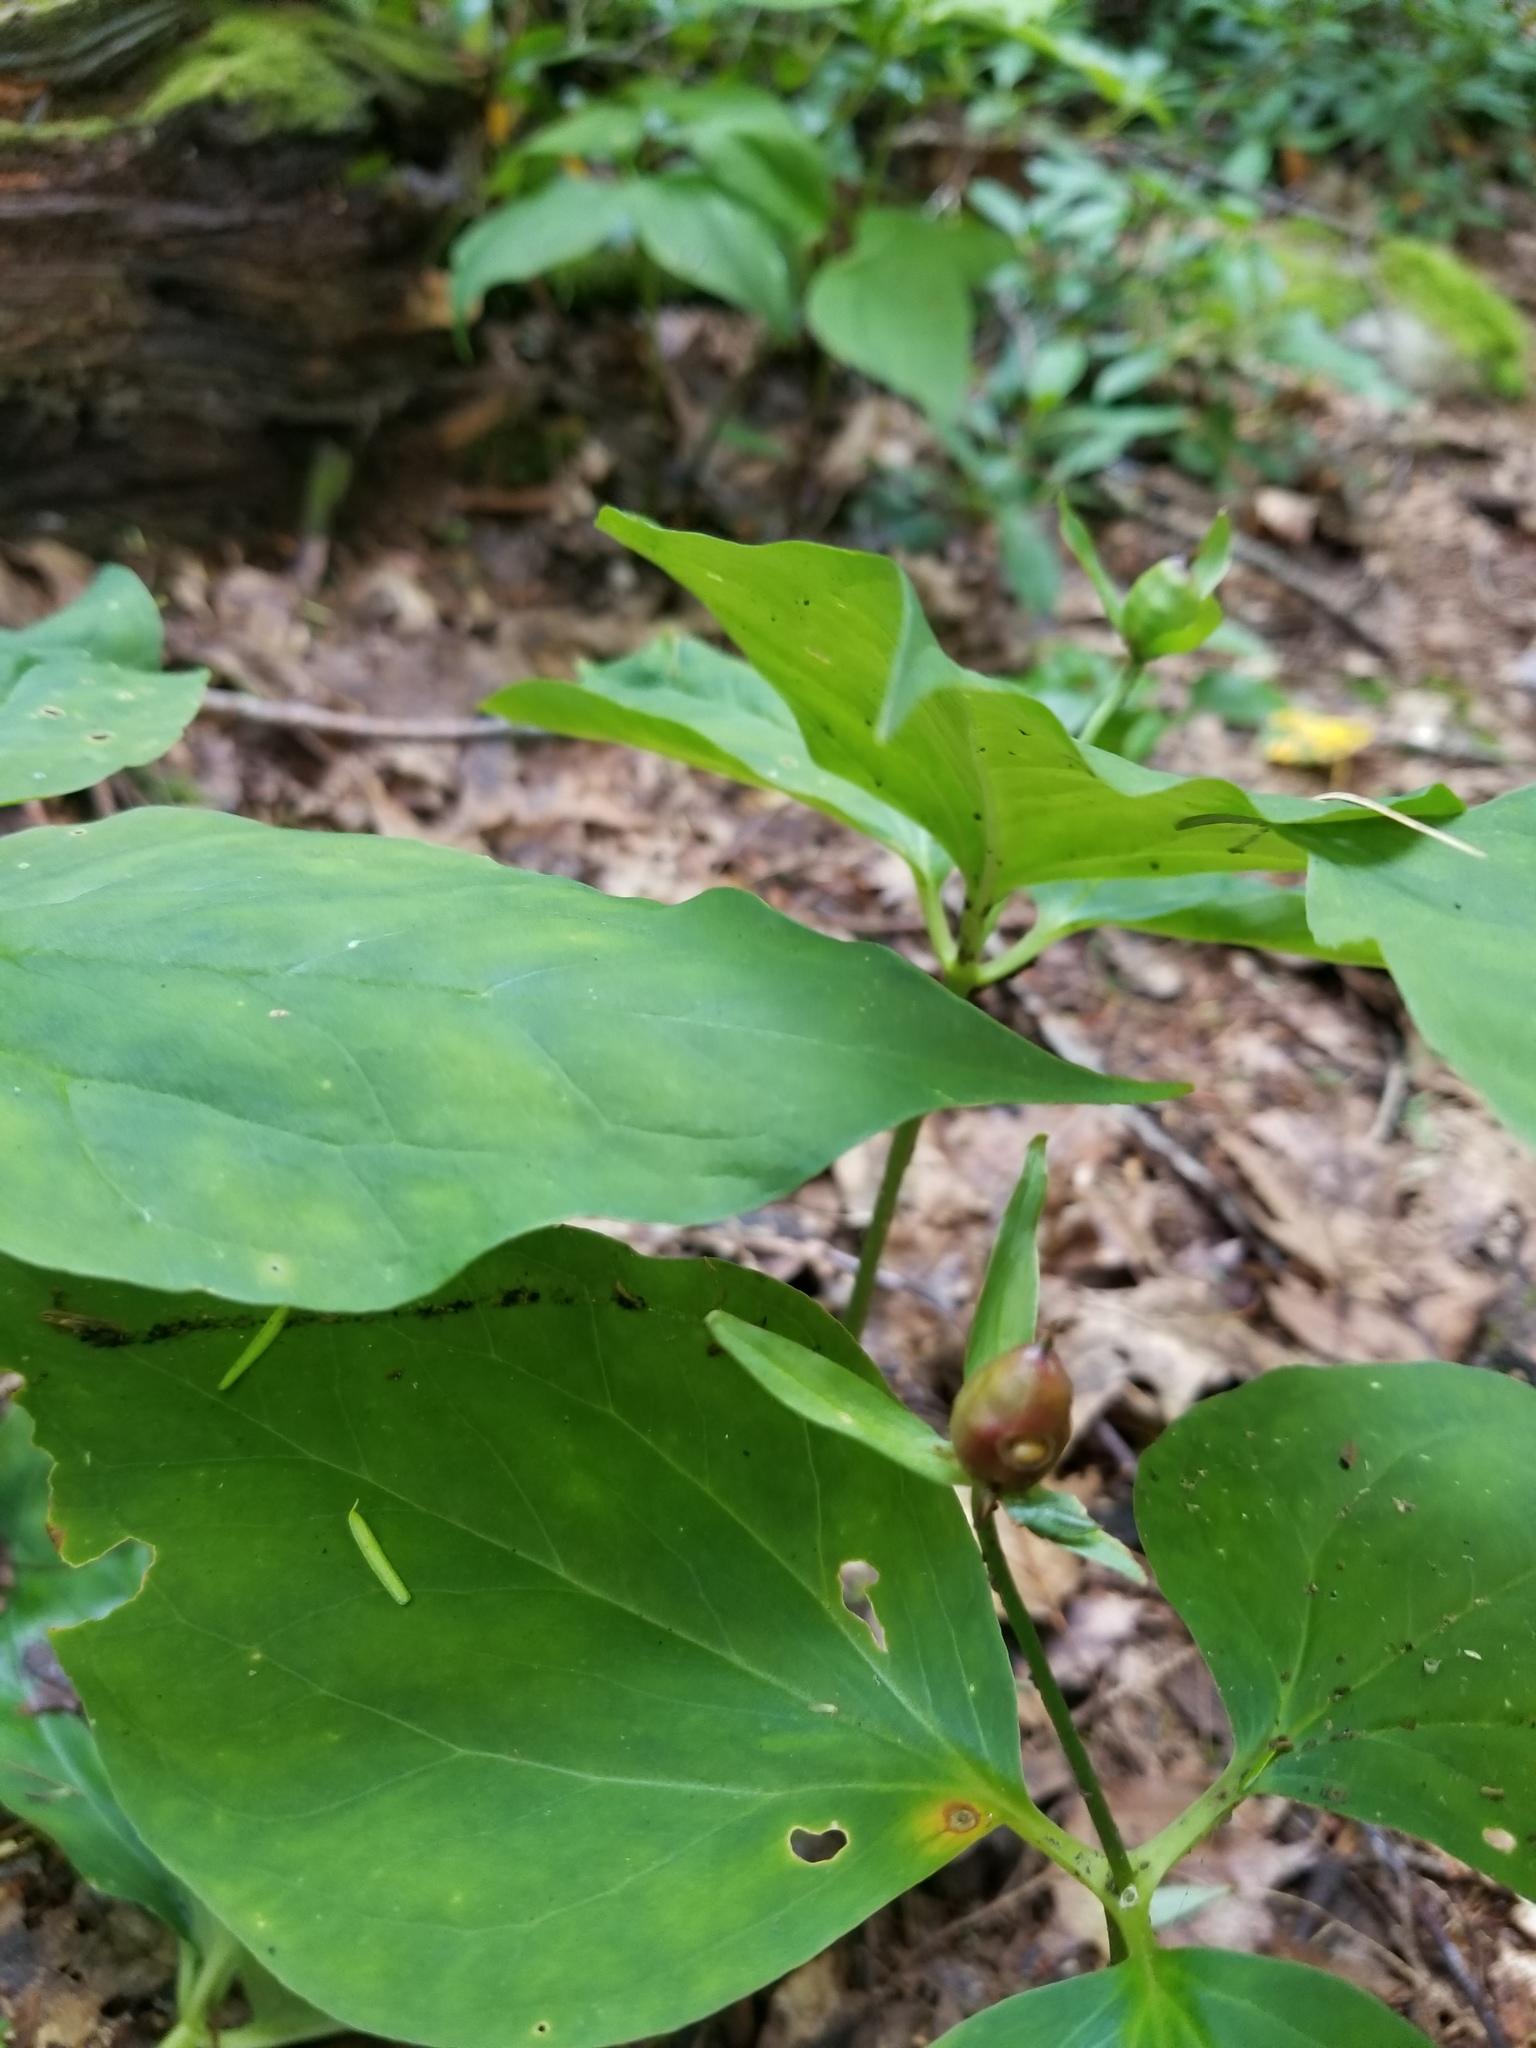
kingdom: Plantae
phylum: Tracheophyta
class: Liliopsida
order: Liliales
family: Melanthiaceae
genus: Trillium
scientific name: Trillium undulatum
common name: Paint trillium
